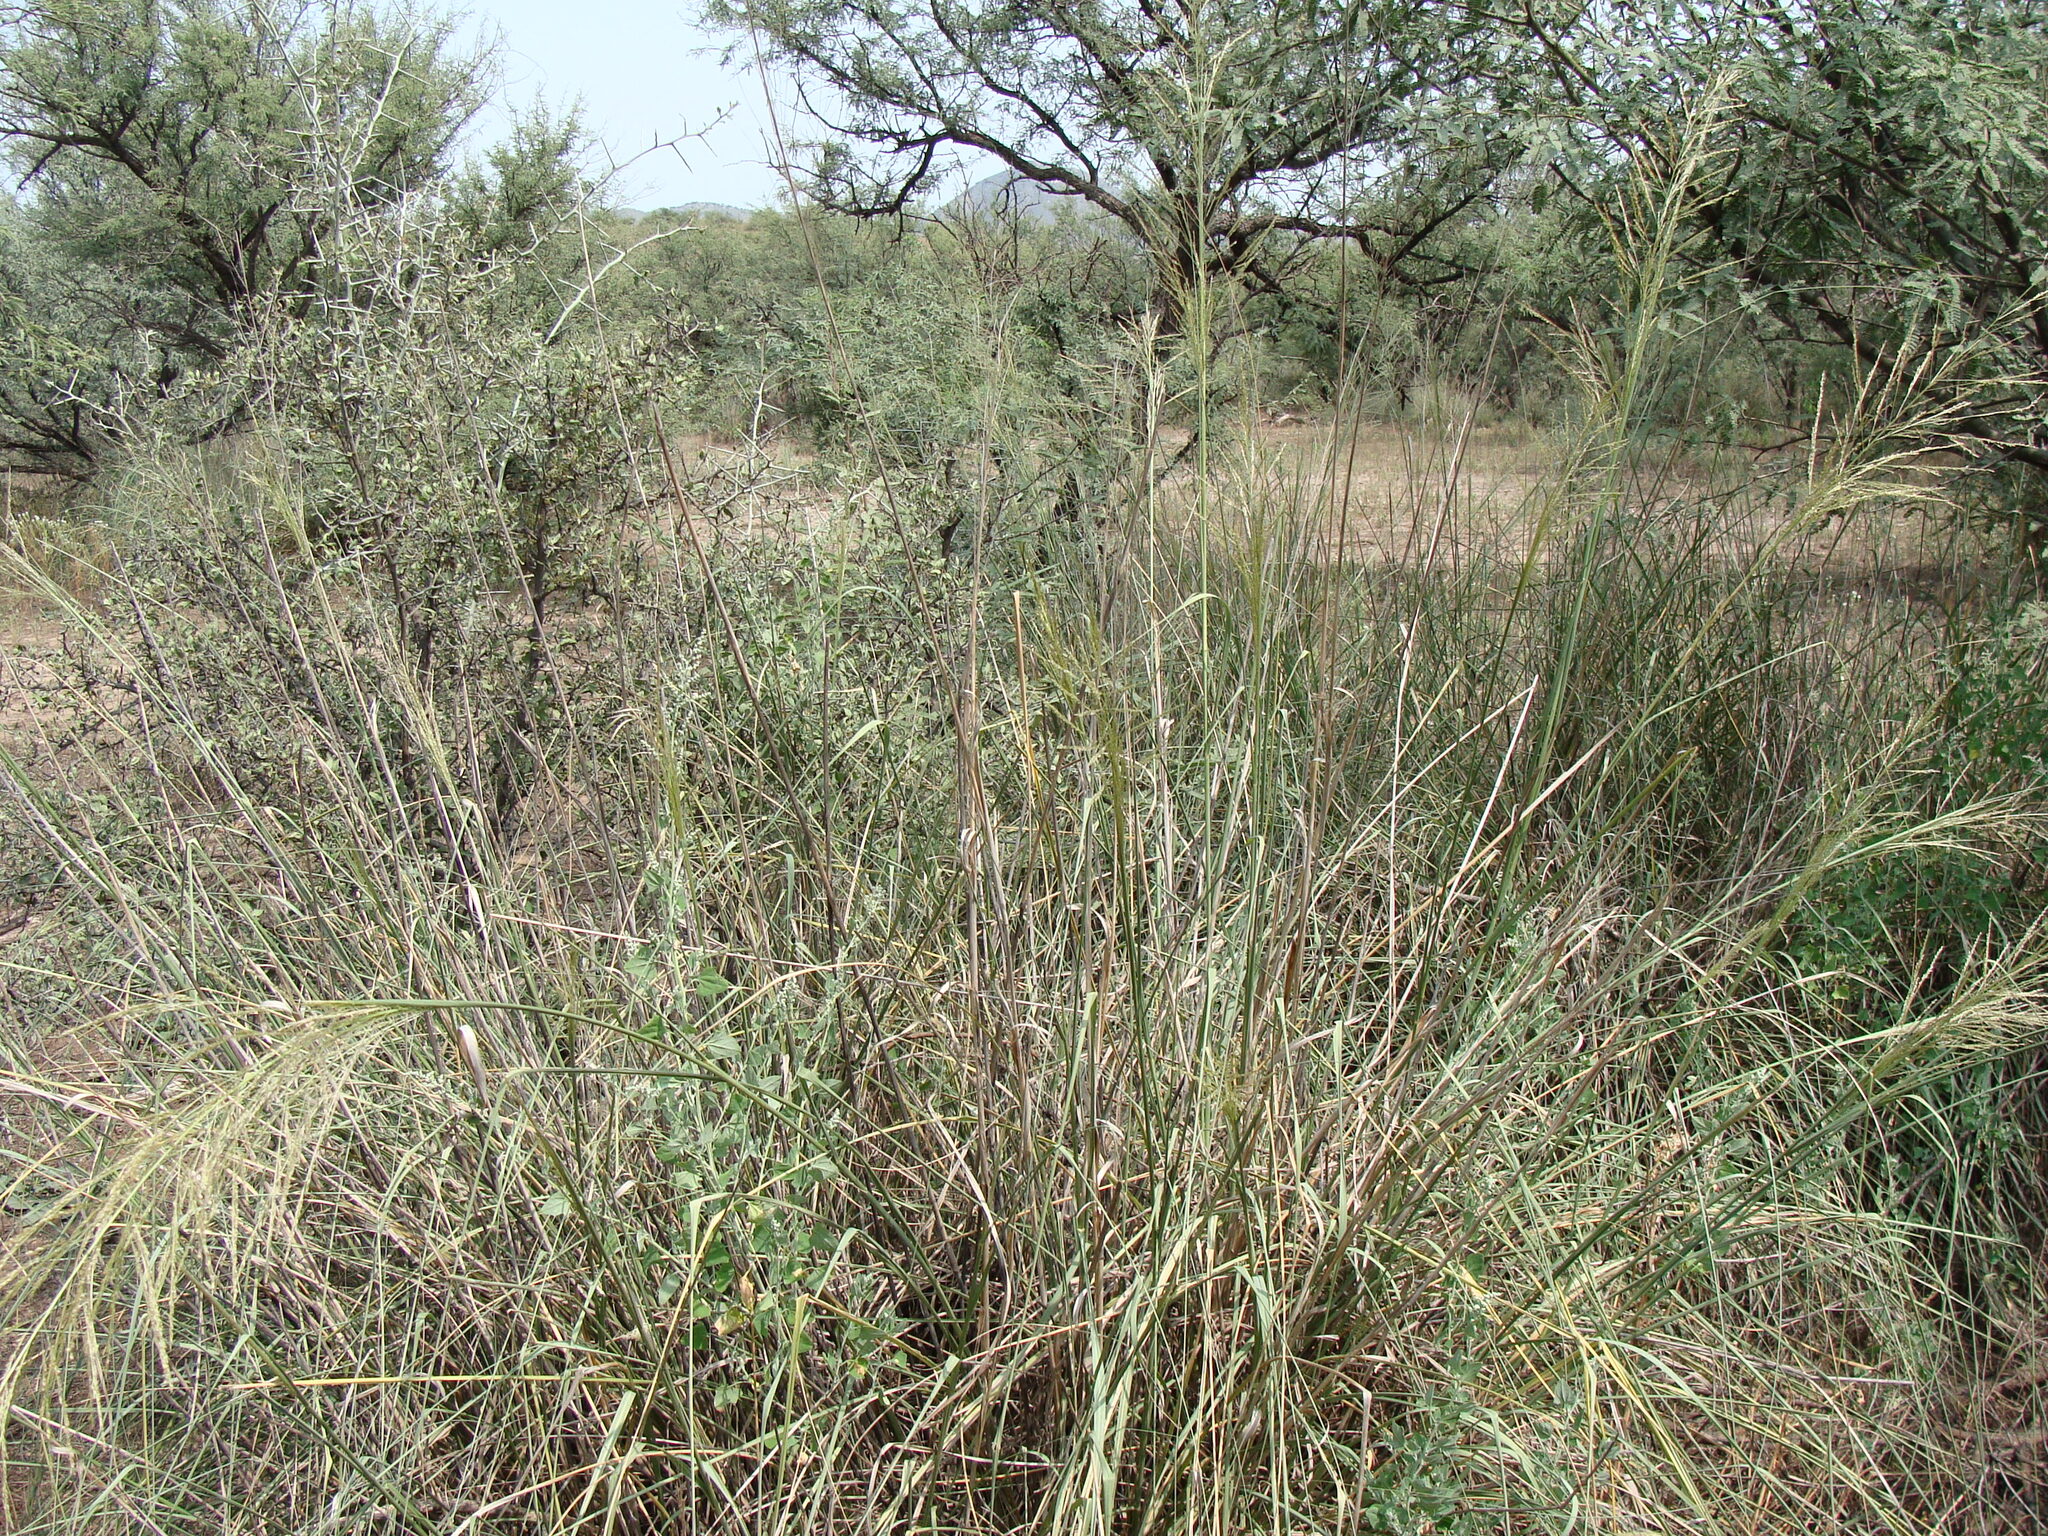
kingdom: Plantae
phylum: Tracheophyta
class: Liliopsida
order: Poales
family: Poaceae
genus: Sporobolus
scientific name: Sporobolus airoides
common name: Alkali sacaton
